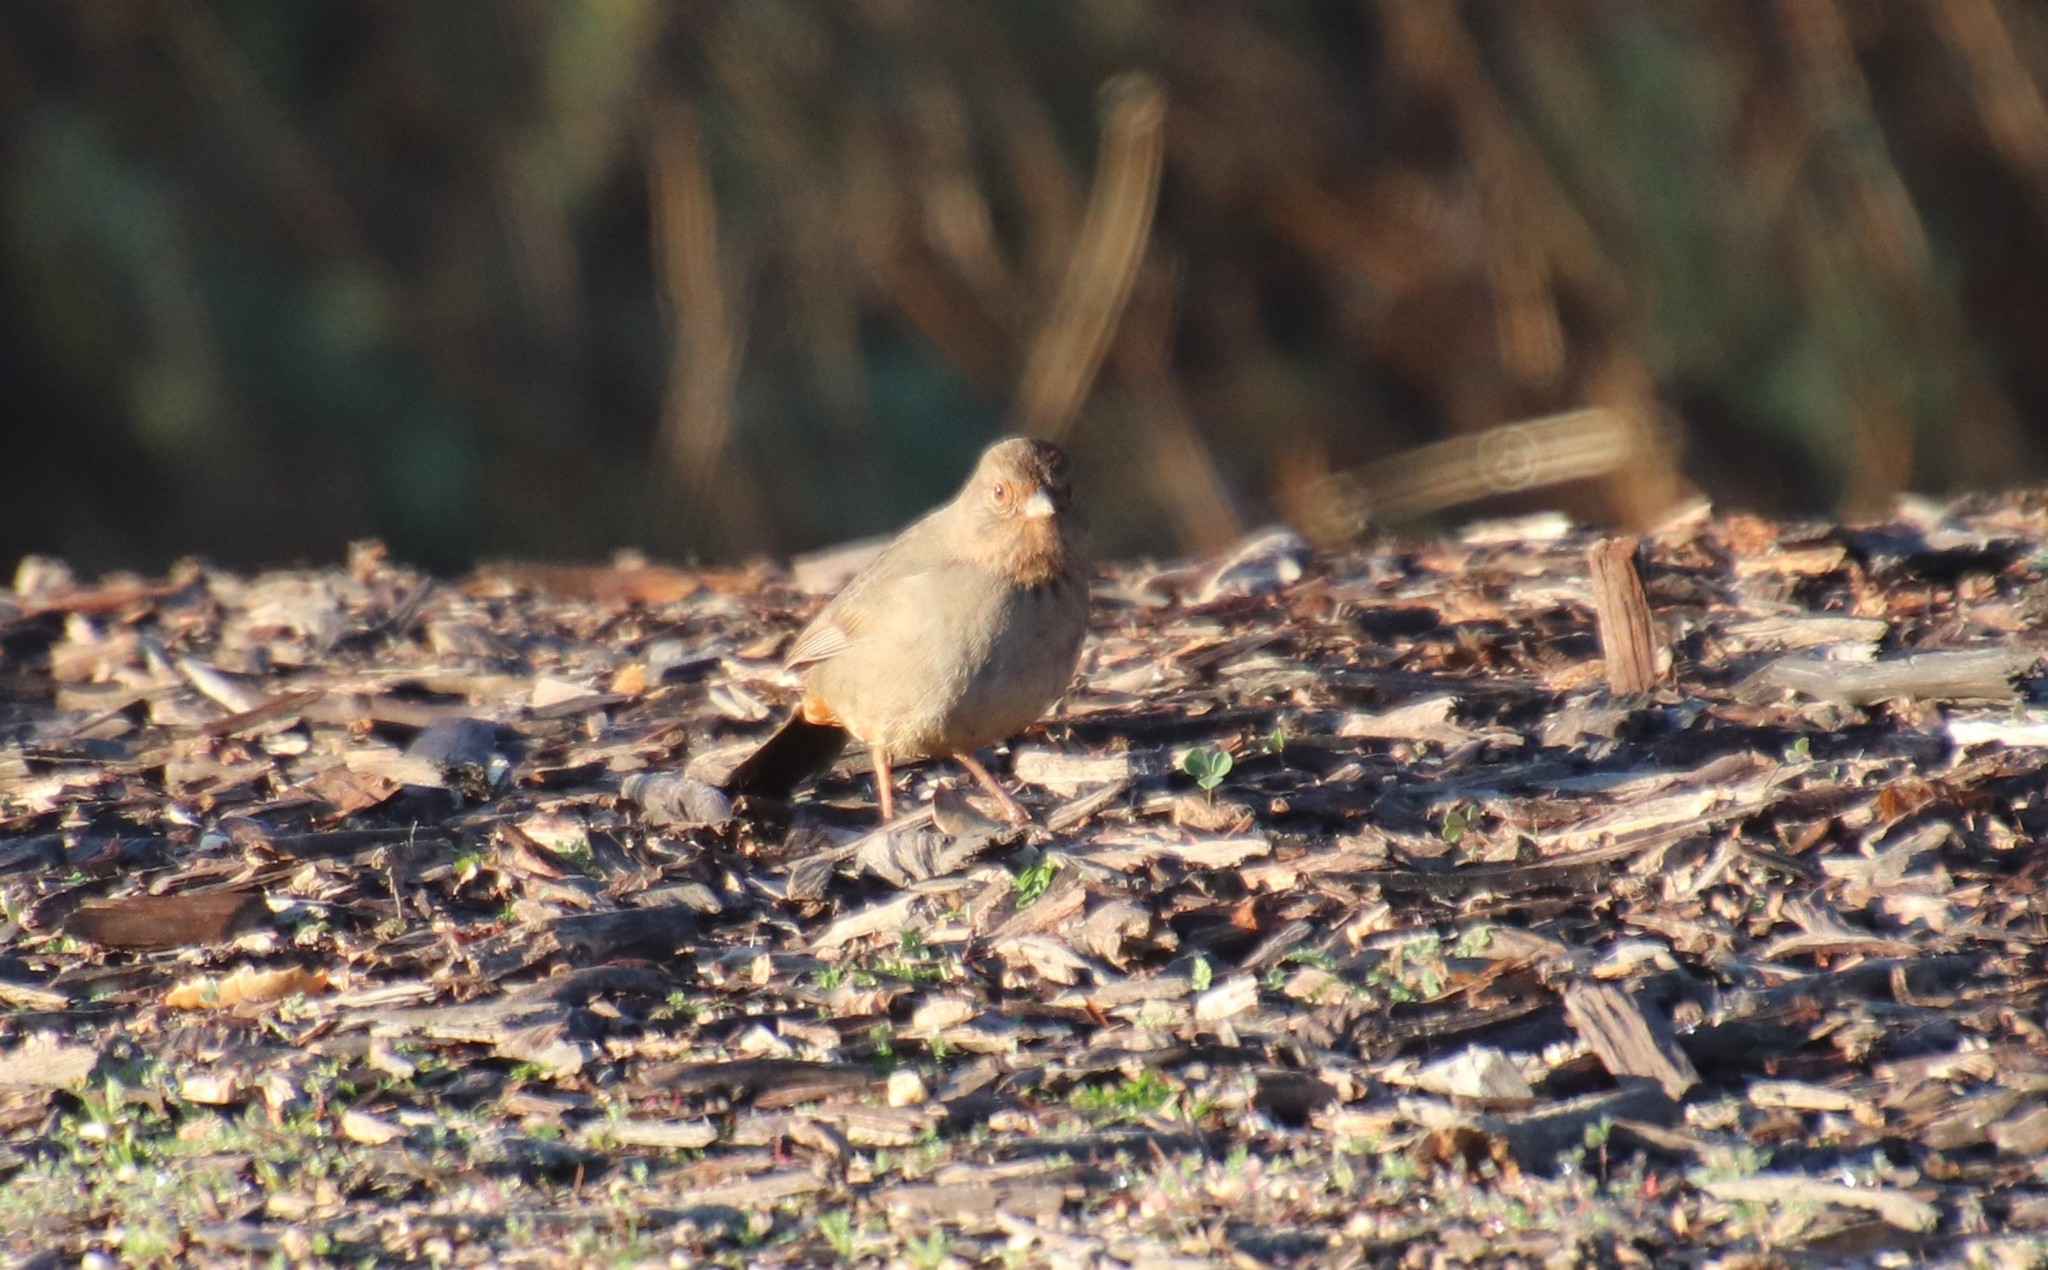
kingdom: Animalia
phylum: Chordata
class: Aves
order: Passeriformes
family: Passerellidae
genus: Melozone
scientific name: Melozone crissalis
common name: California towhee
